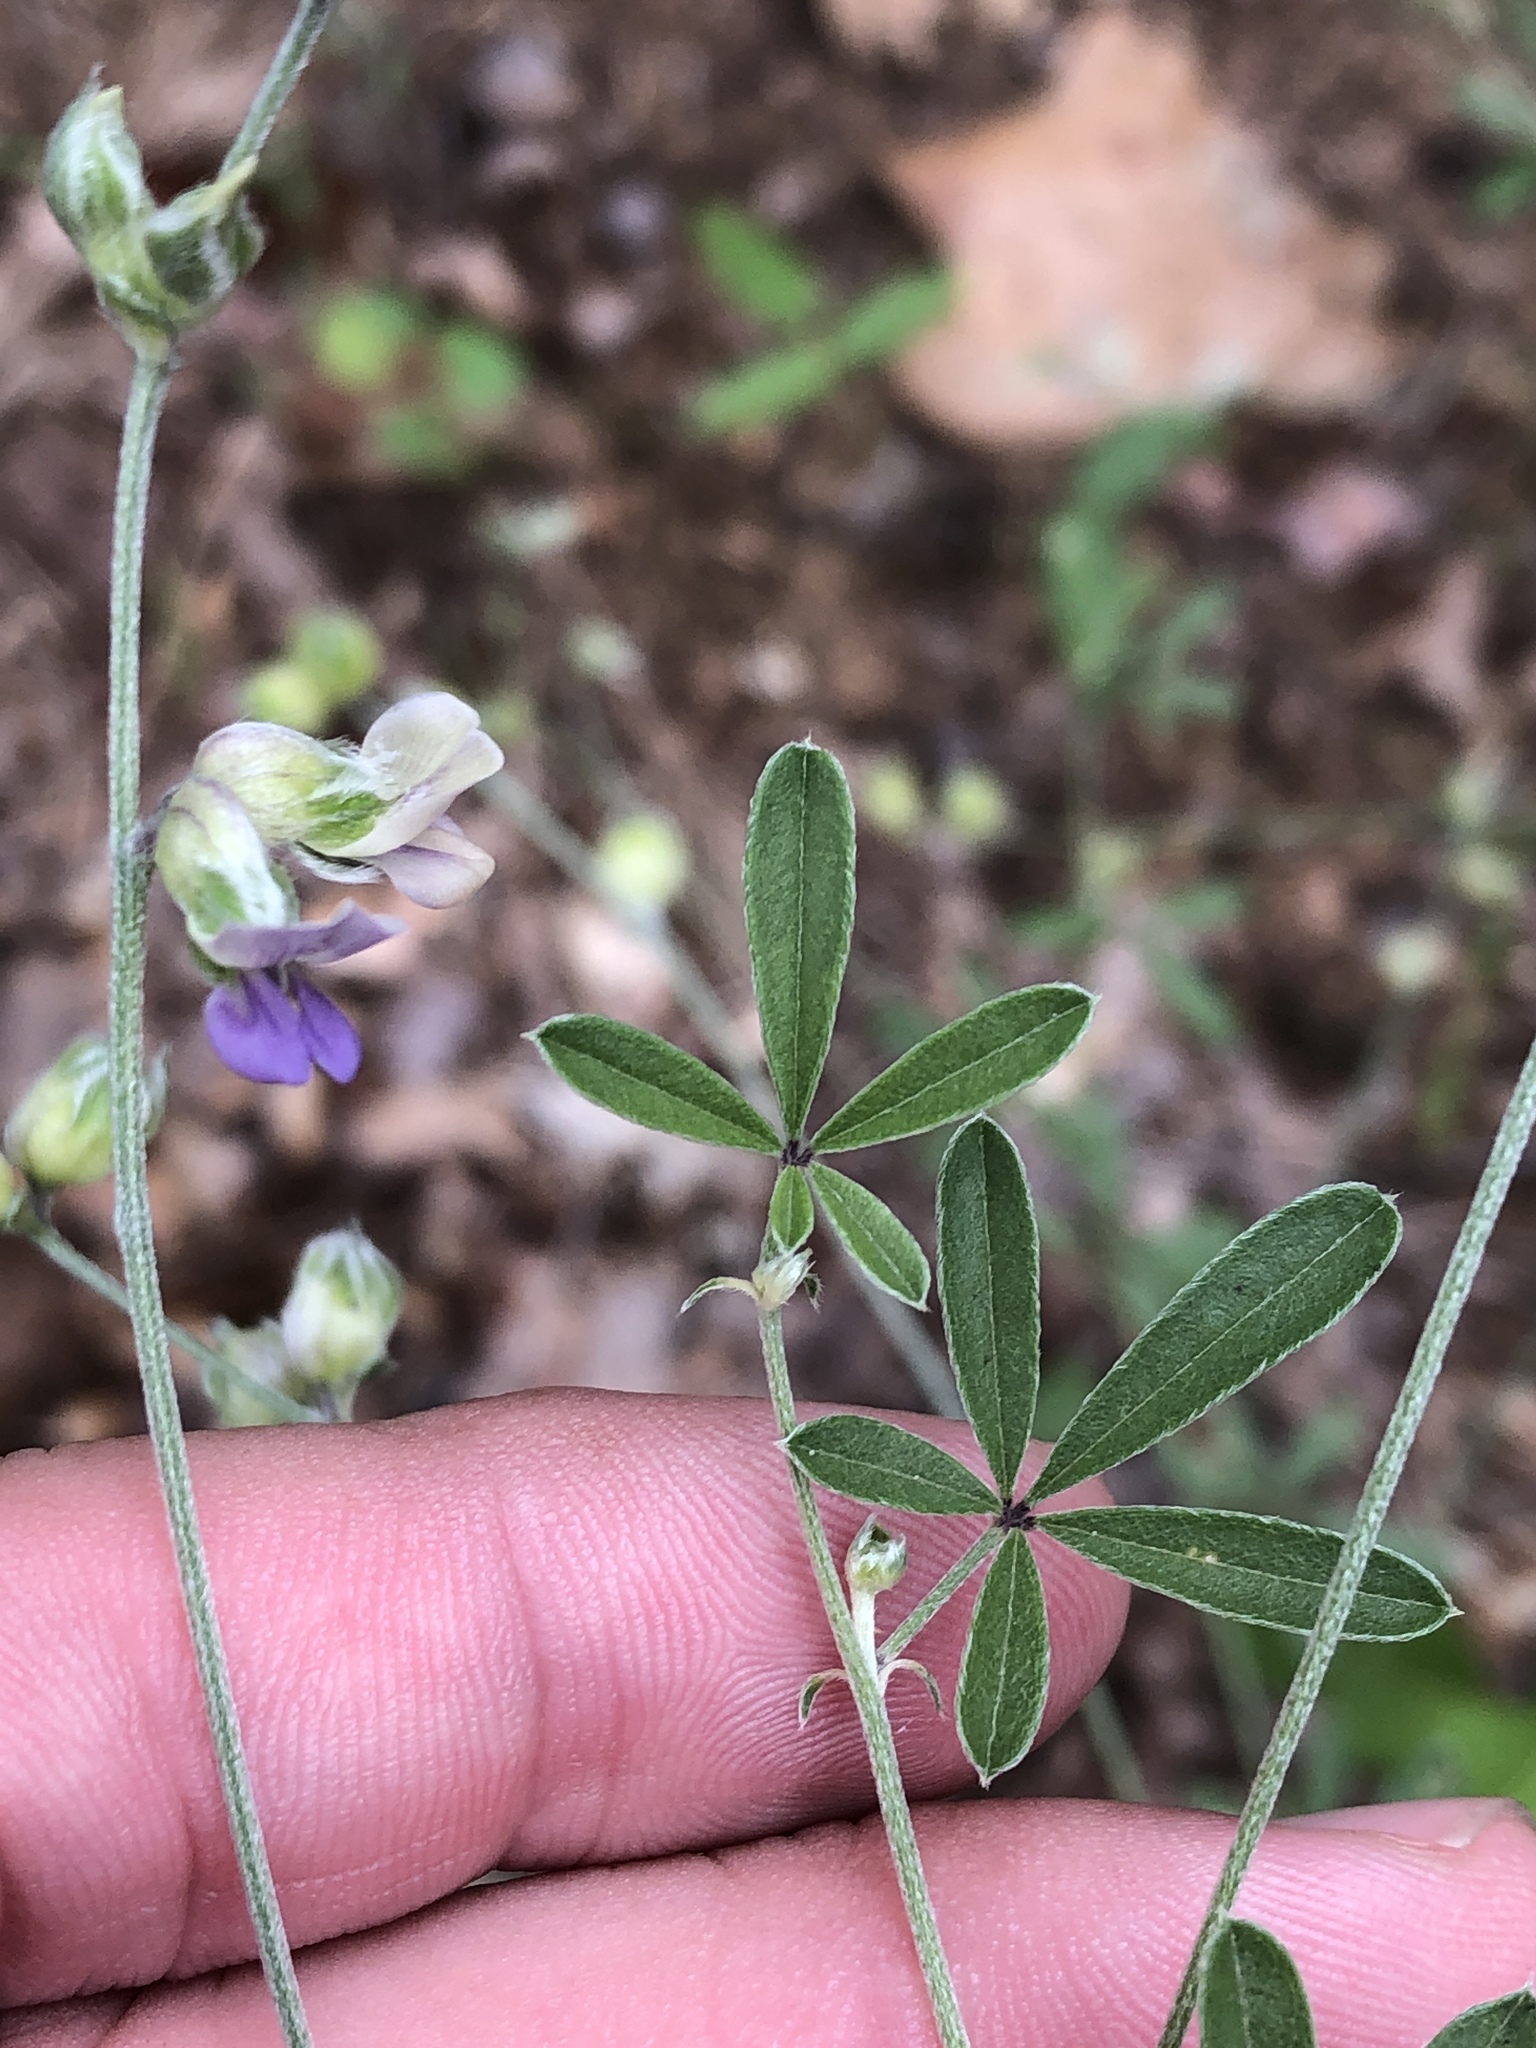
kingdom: Plantae
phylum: Tracheophyta
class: Magnoliopsida
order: Fabales
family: Fabaceae
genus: Pediomelum
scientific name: Pediomelum digitatum
